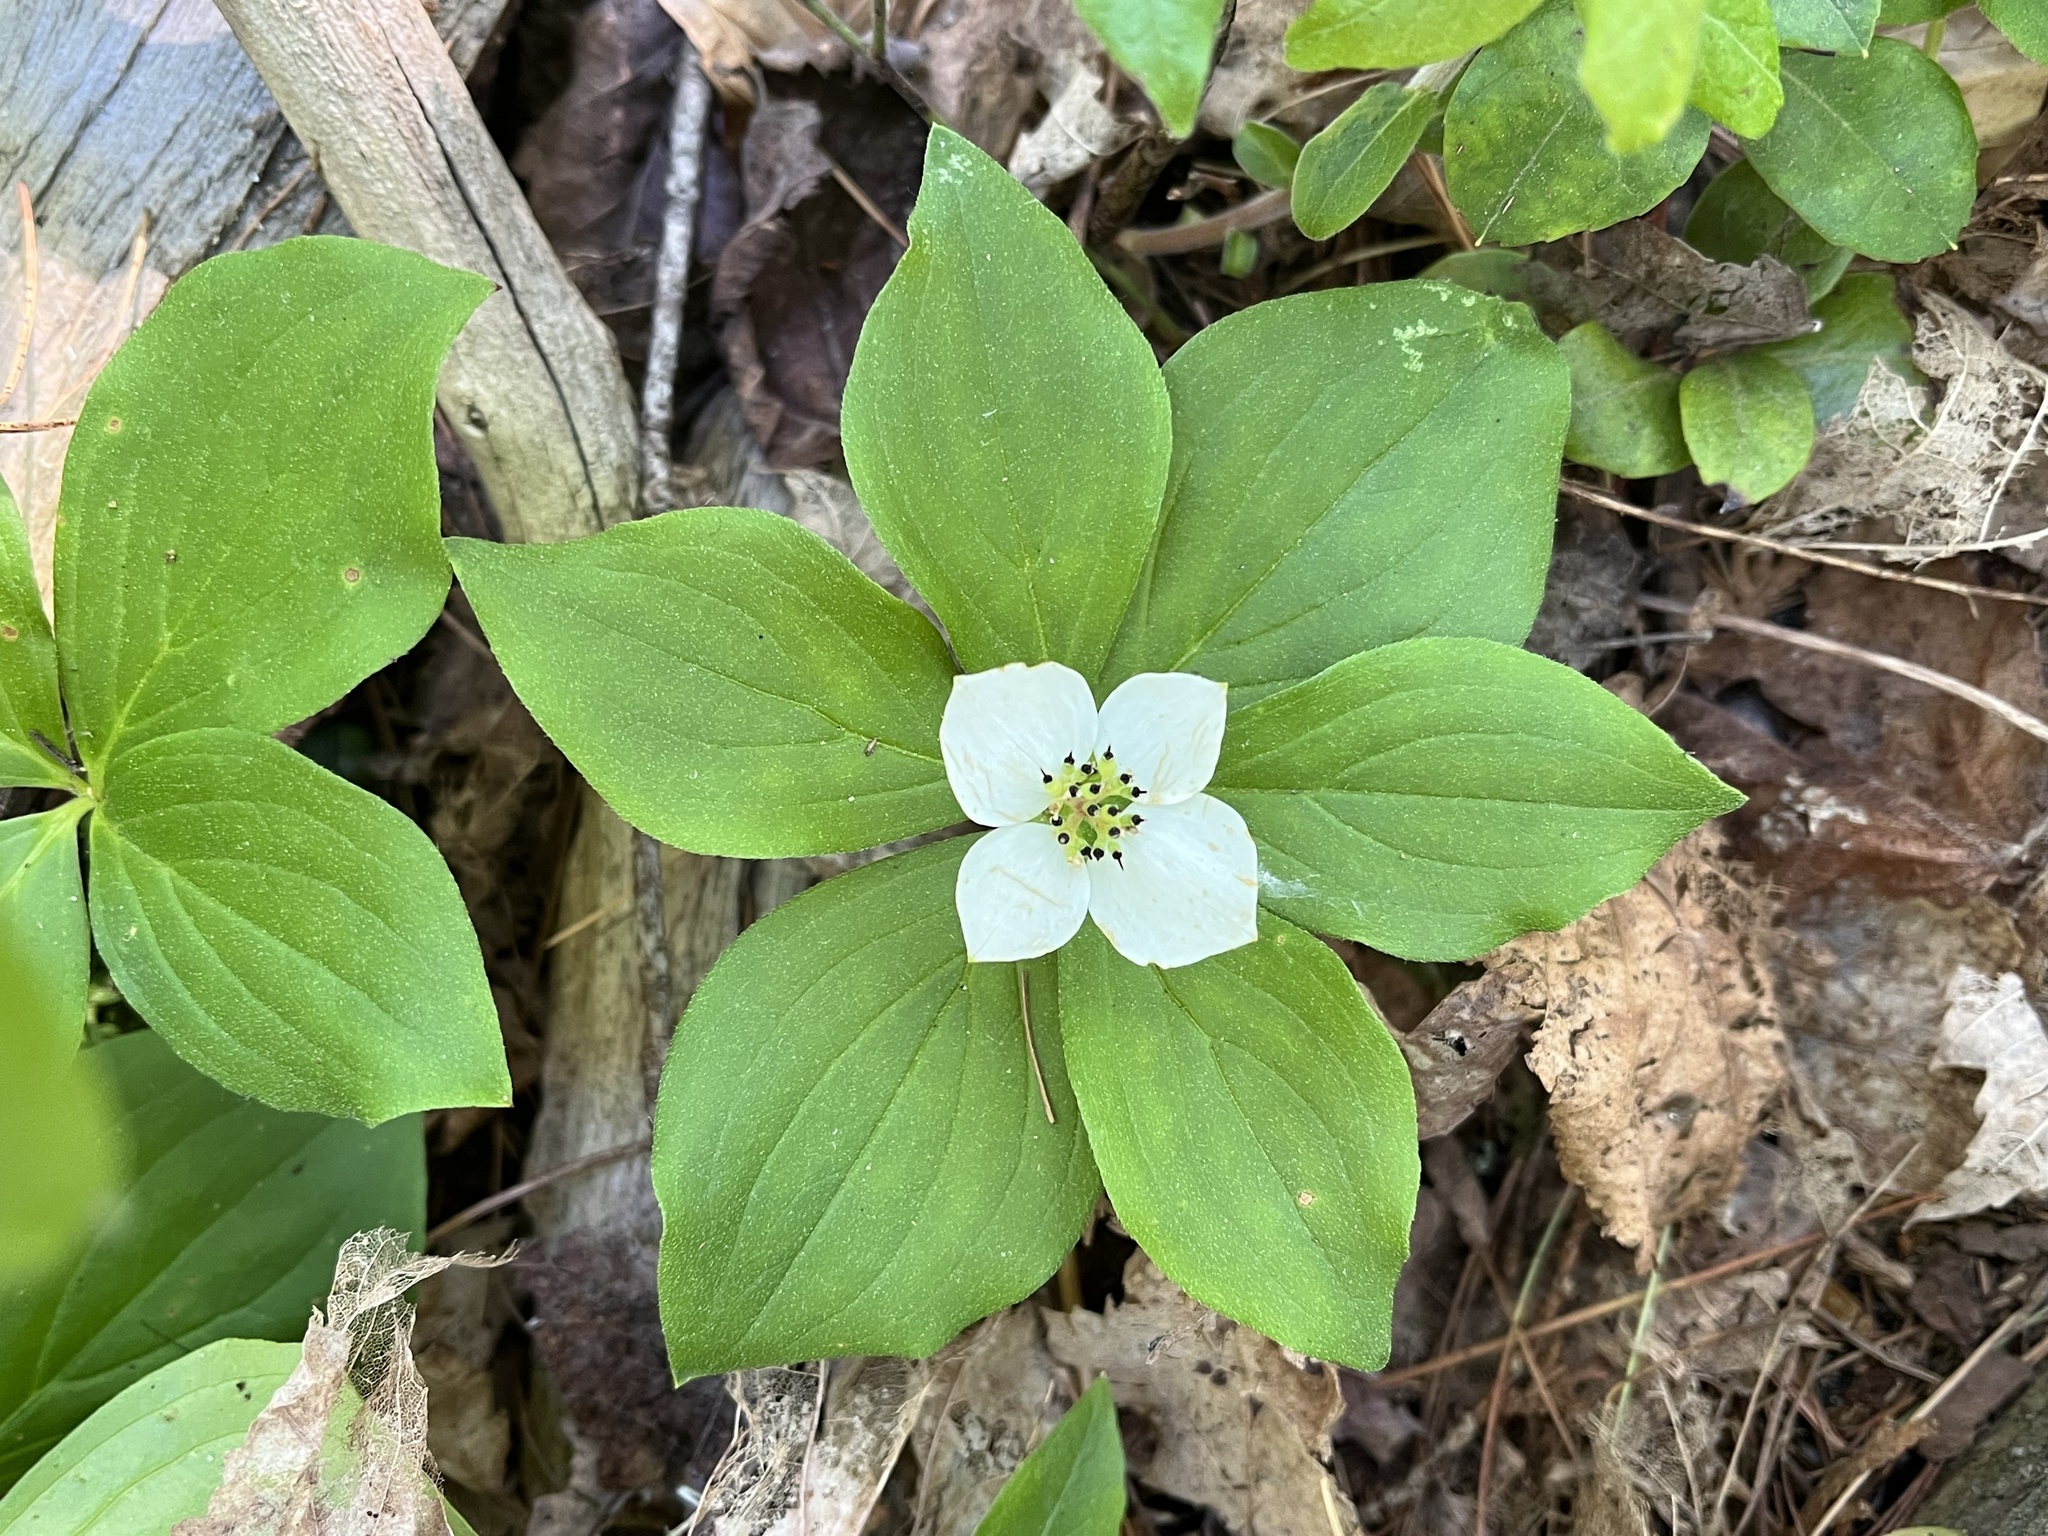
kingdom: Plantae
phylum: Tracheophyta
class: Magnoliopsida
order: Cornales
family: Cornaceae
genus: Cornus
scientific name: Cornus canadensis
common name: Creeping dogwood
